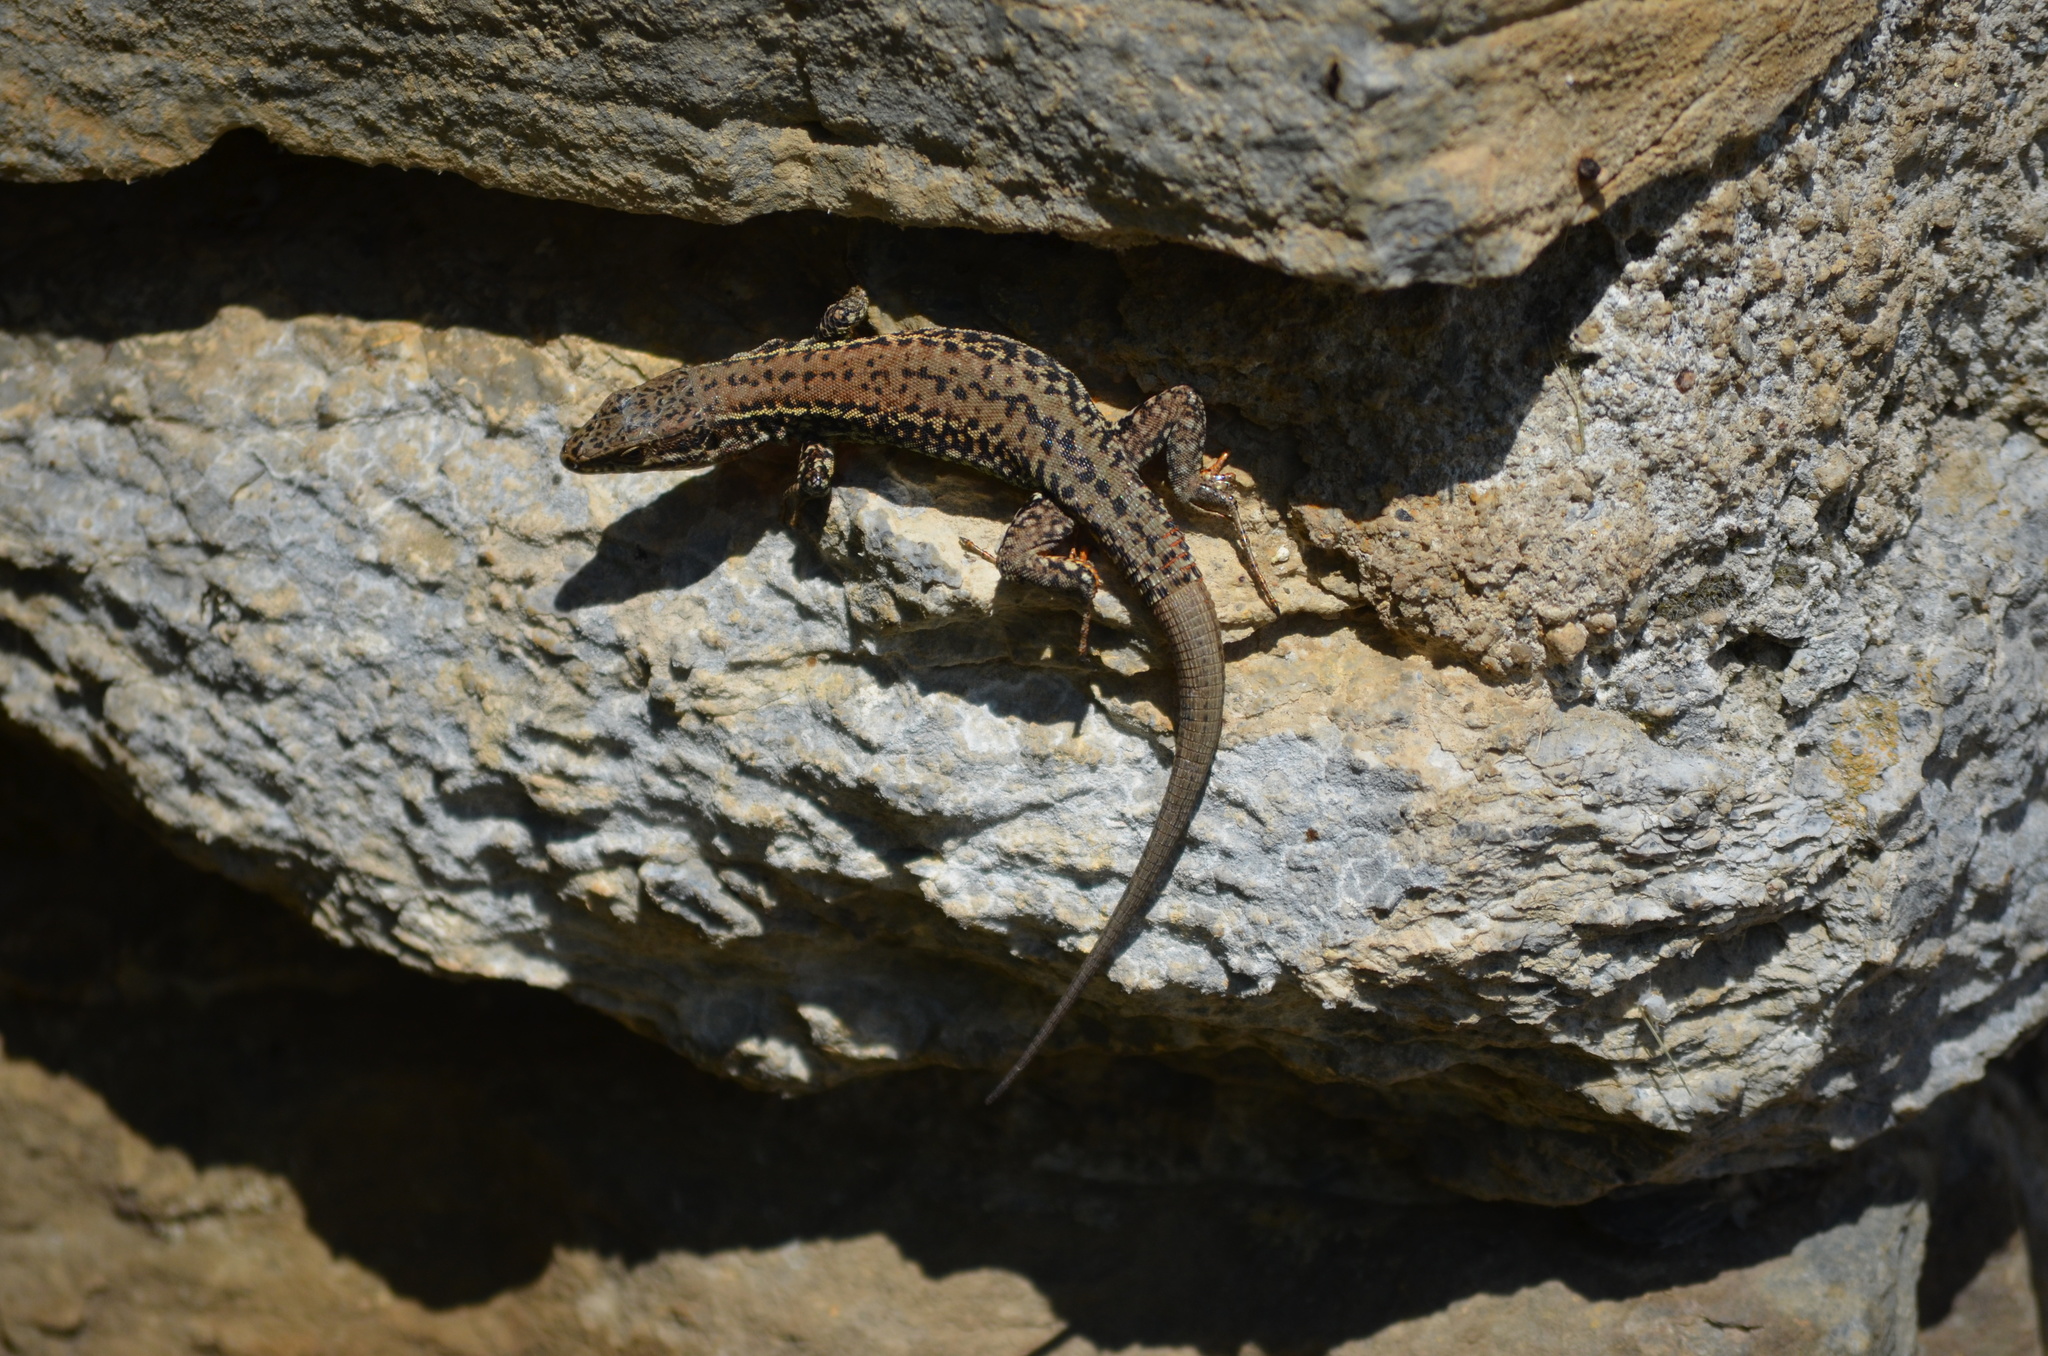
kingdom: Animalia
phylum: Chordata
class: Squamata
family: Lacertidae
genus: Podarcis
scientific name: Podarcis muralis
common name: Common wall lizard
